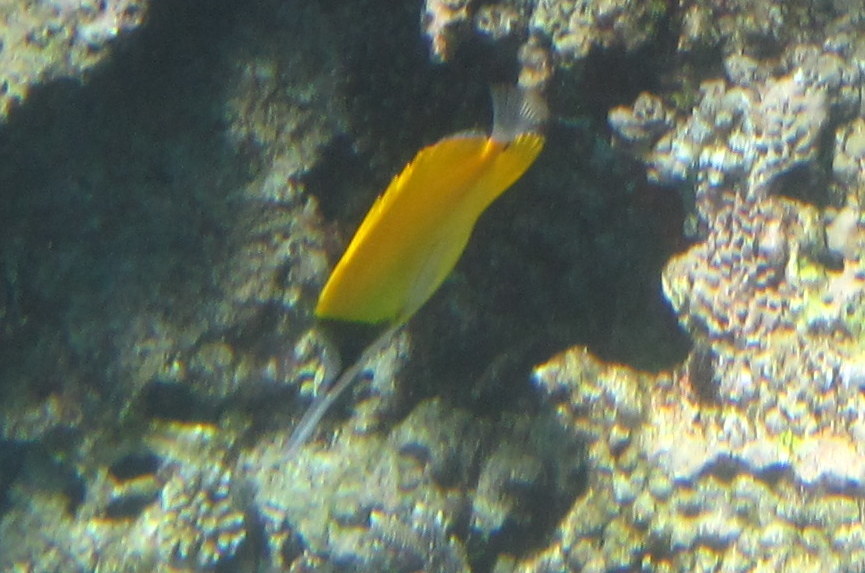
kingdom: Animalia
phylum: Chordata
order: Perciformes
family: Chaetodontidae
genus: Forcipiger
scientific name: Forcipiger flavissimus
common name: Forcepsfish
